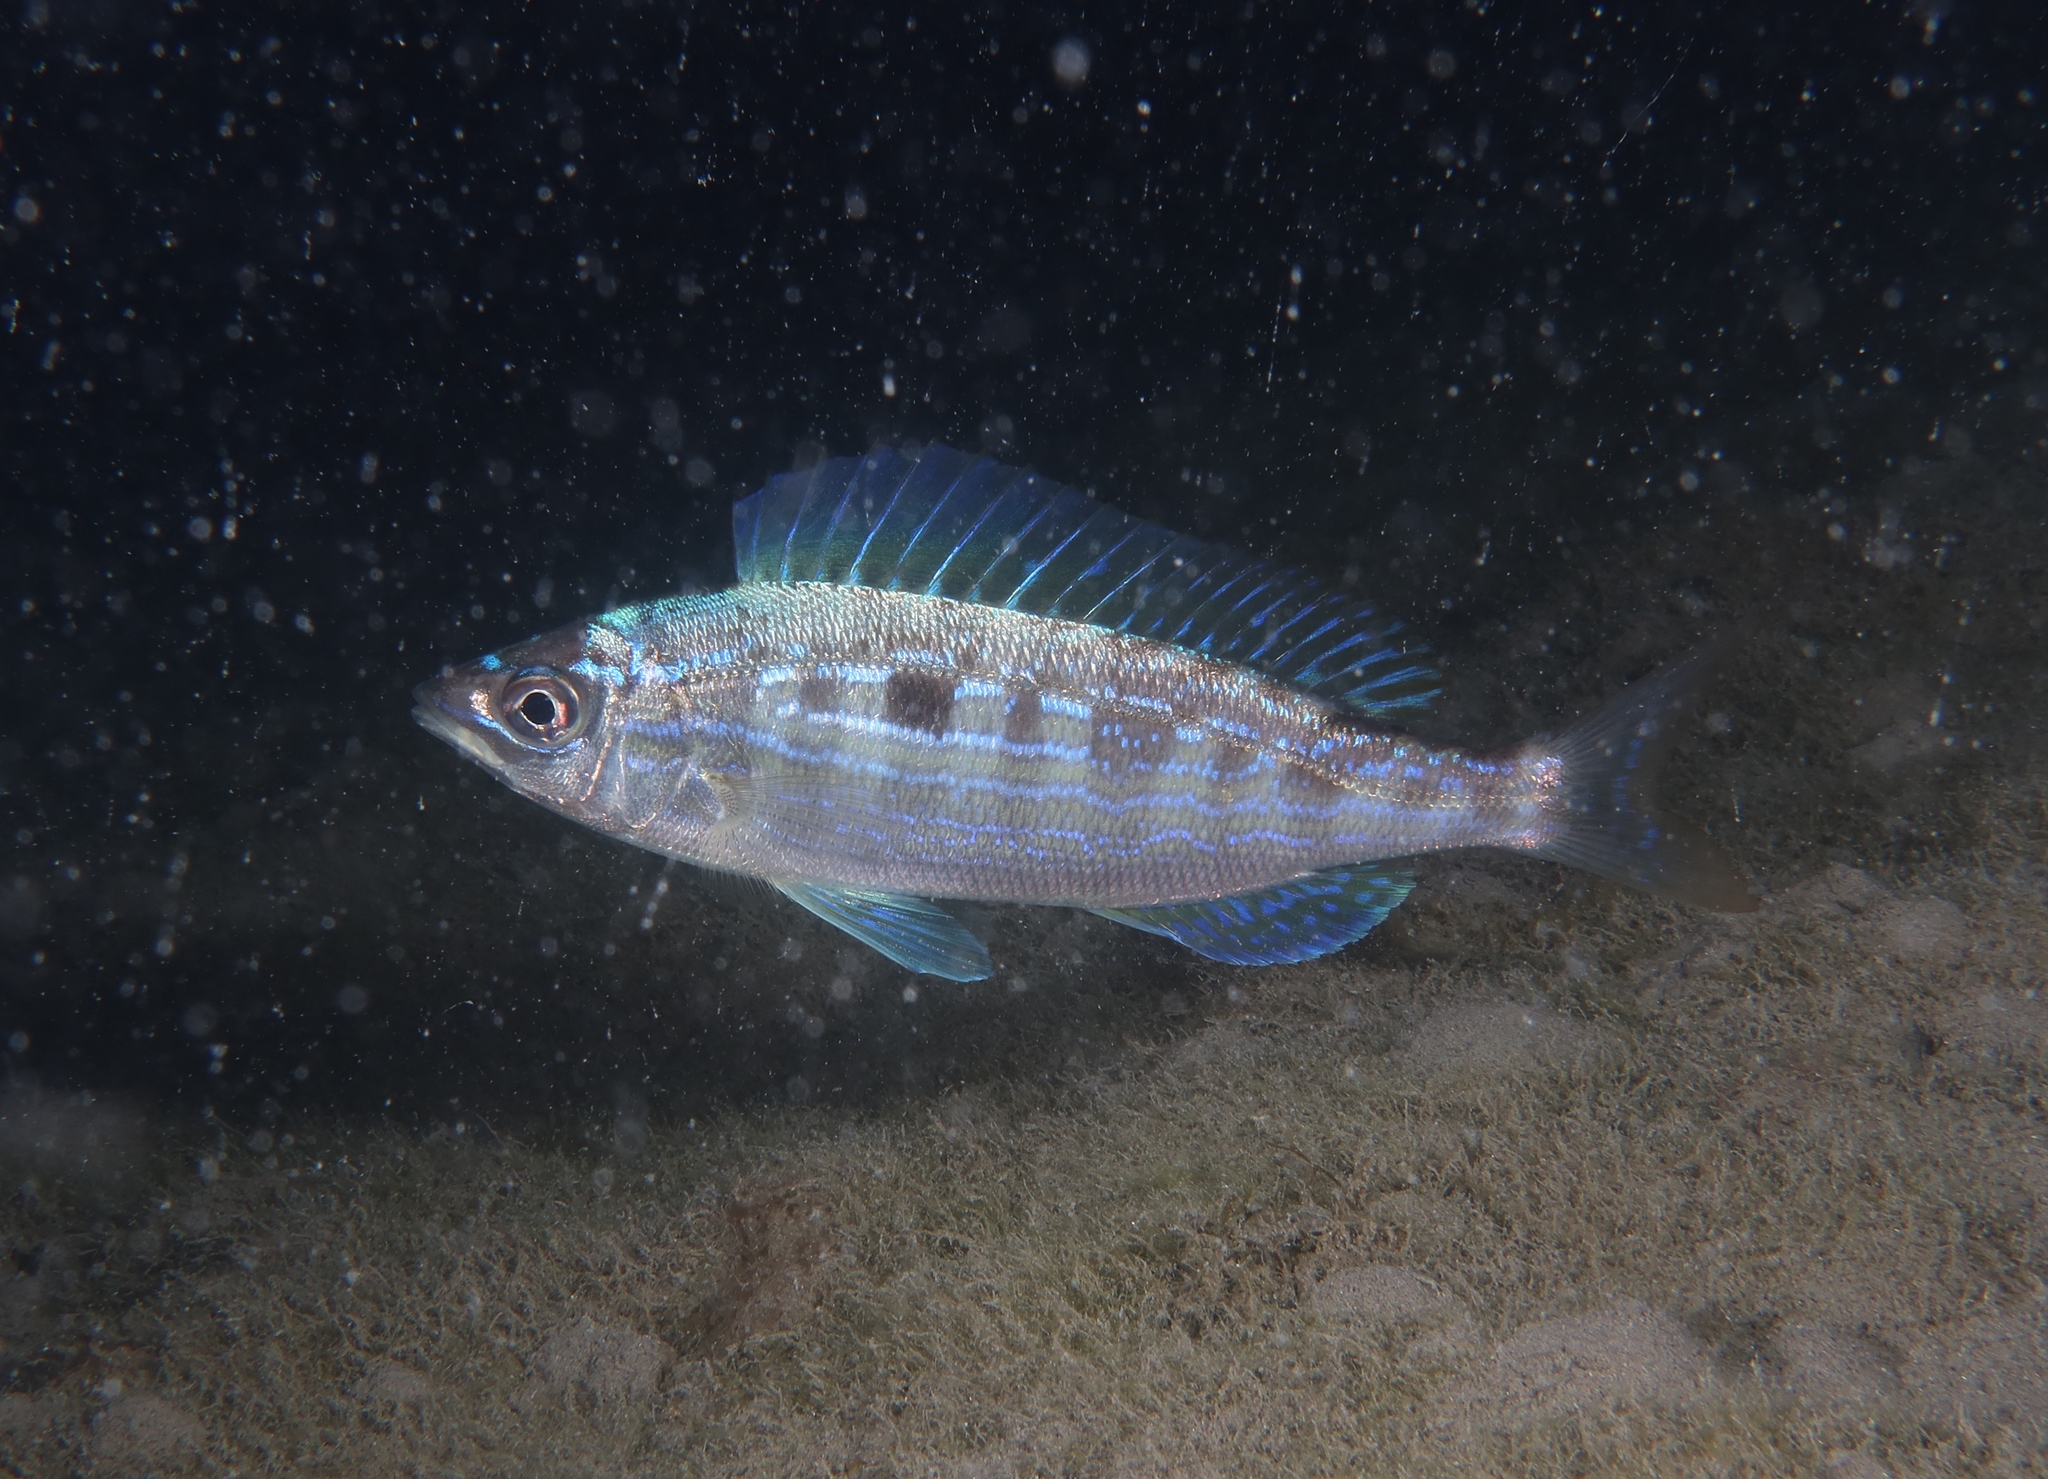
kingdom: Animalia
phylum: Chordata
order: Perciformes
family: Sparidae
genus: Spicara
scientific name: Spicara maena
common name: Blotched picarel
